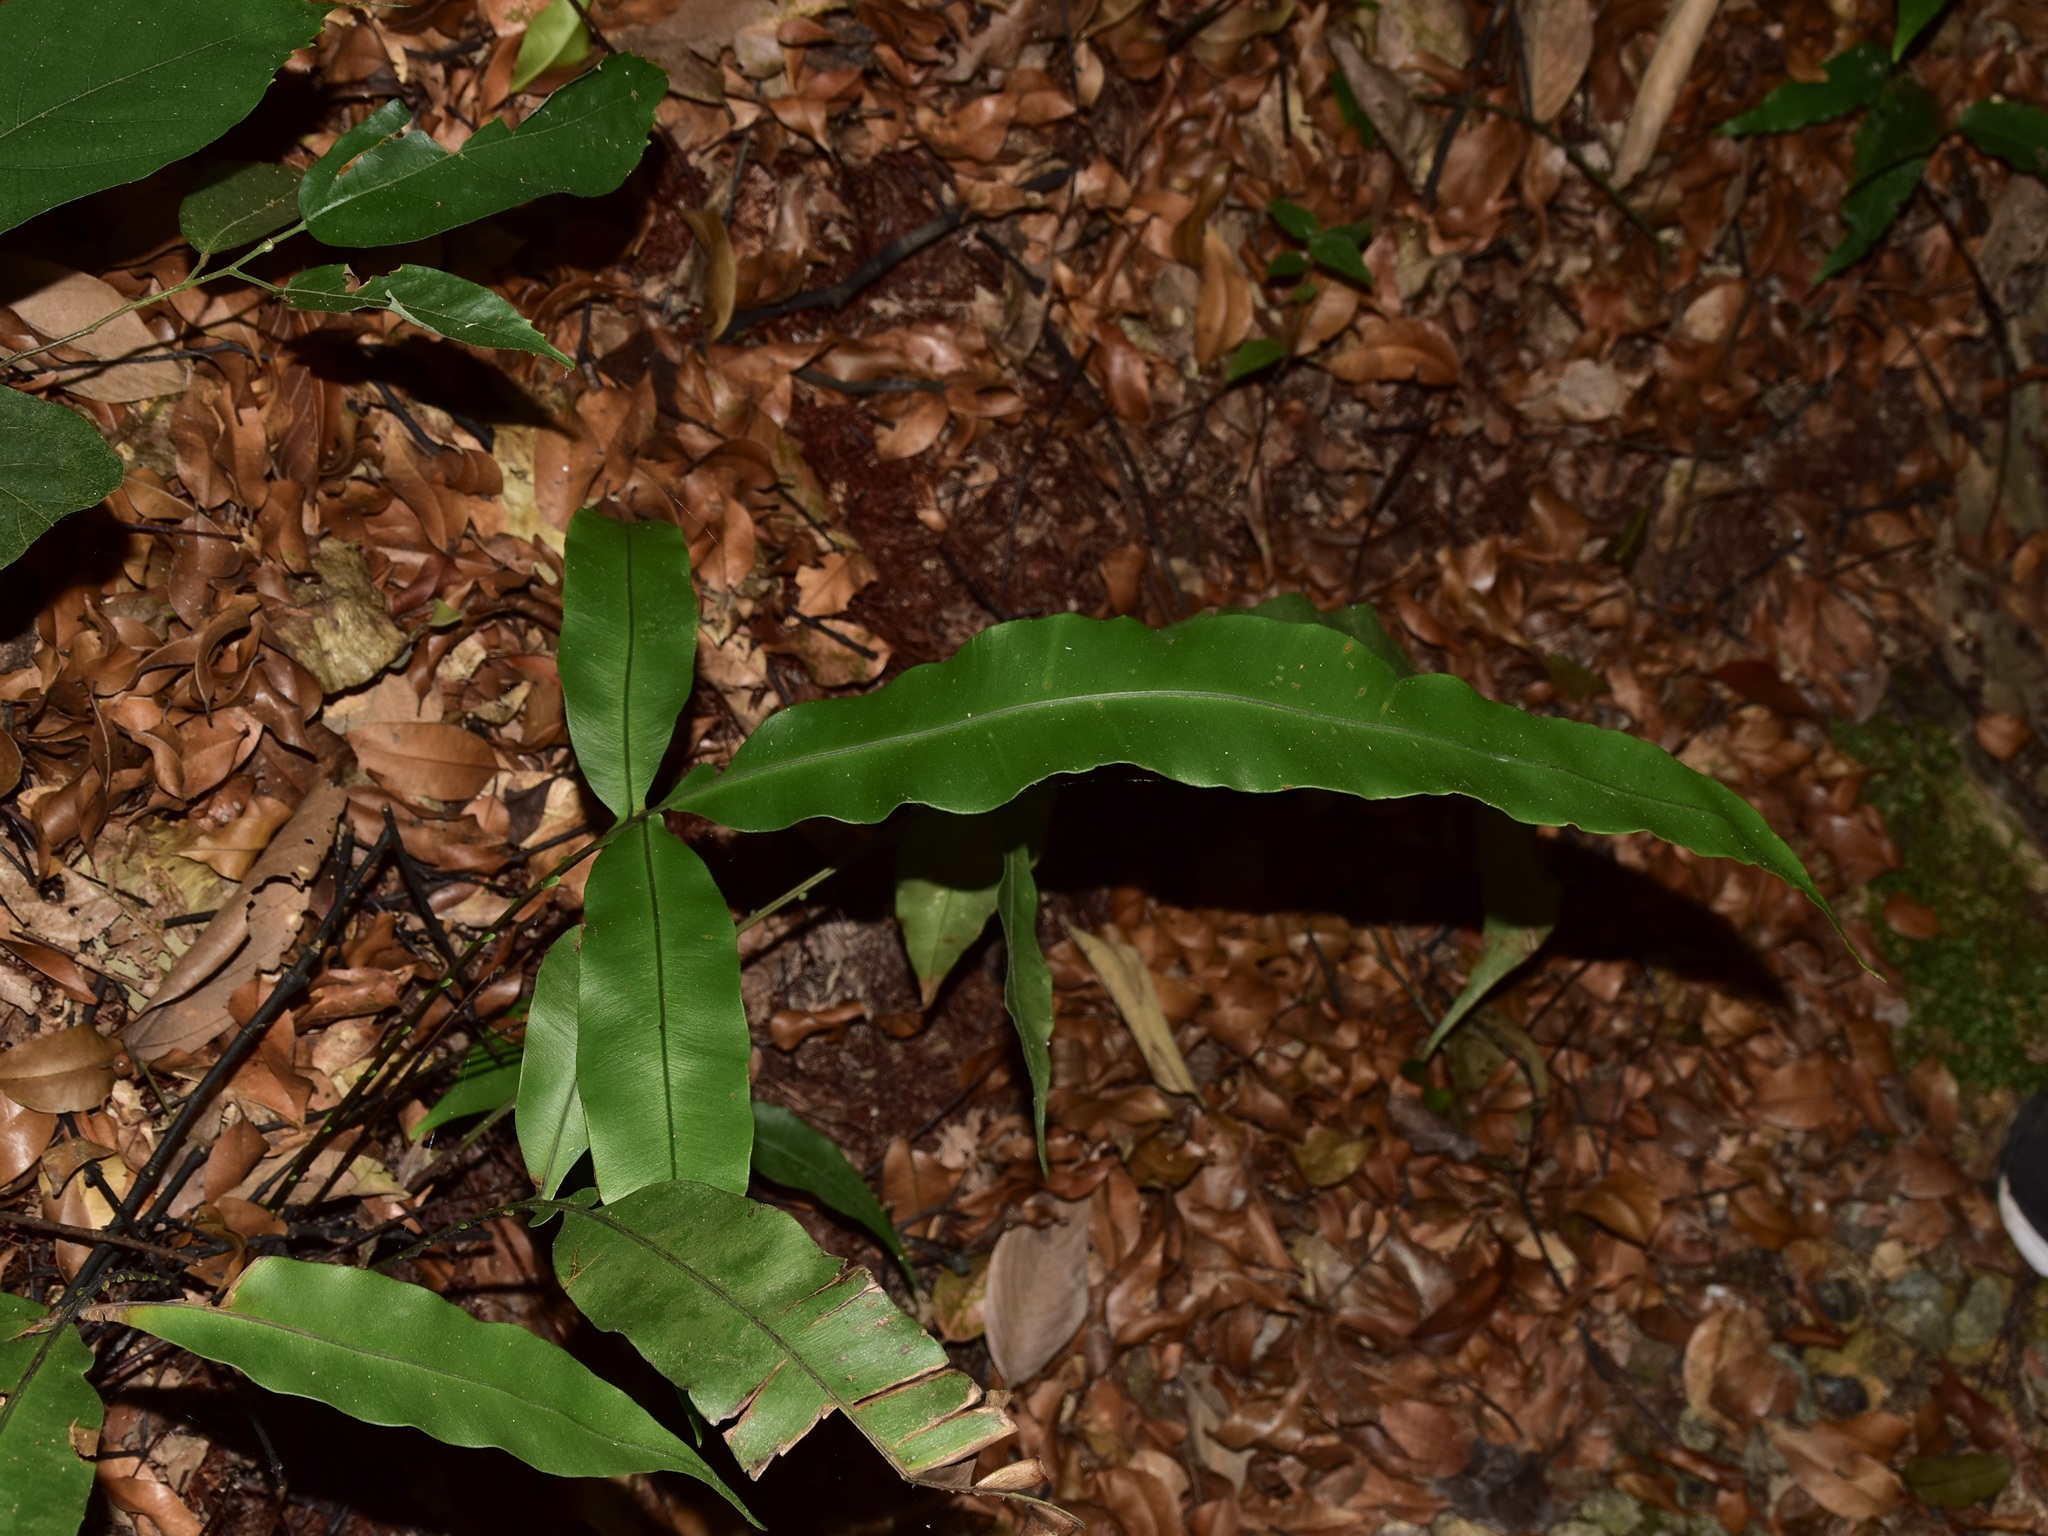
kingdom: Plantae
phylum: Tracheophyta
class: Polypodiopsida
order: Polypodiales
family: Blechnaceae
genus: Blechnopsis
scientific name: Blechnopsis finlaysoniana
